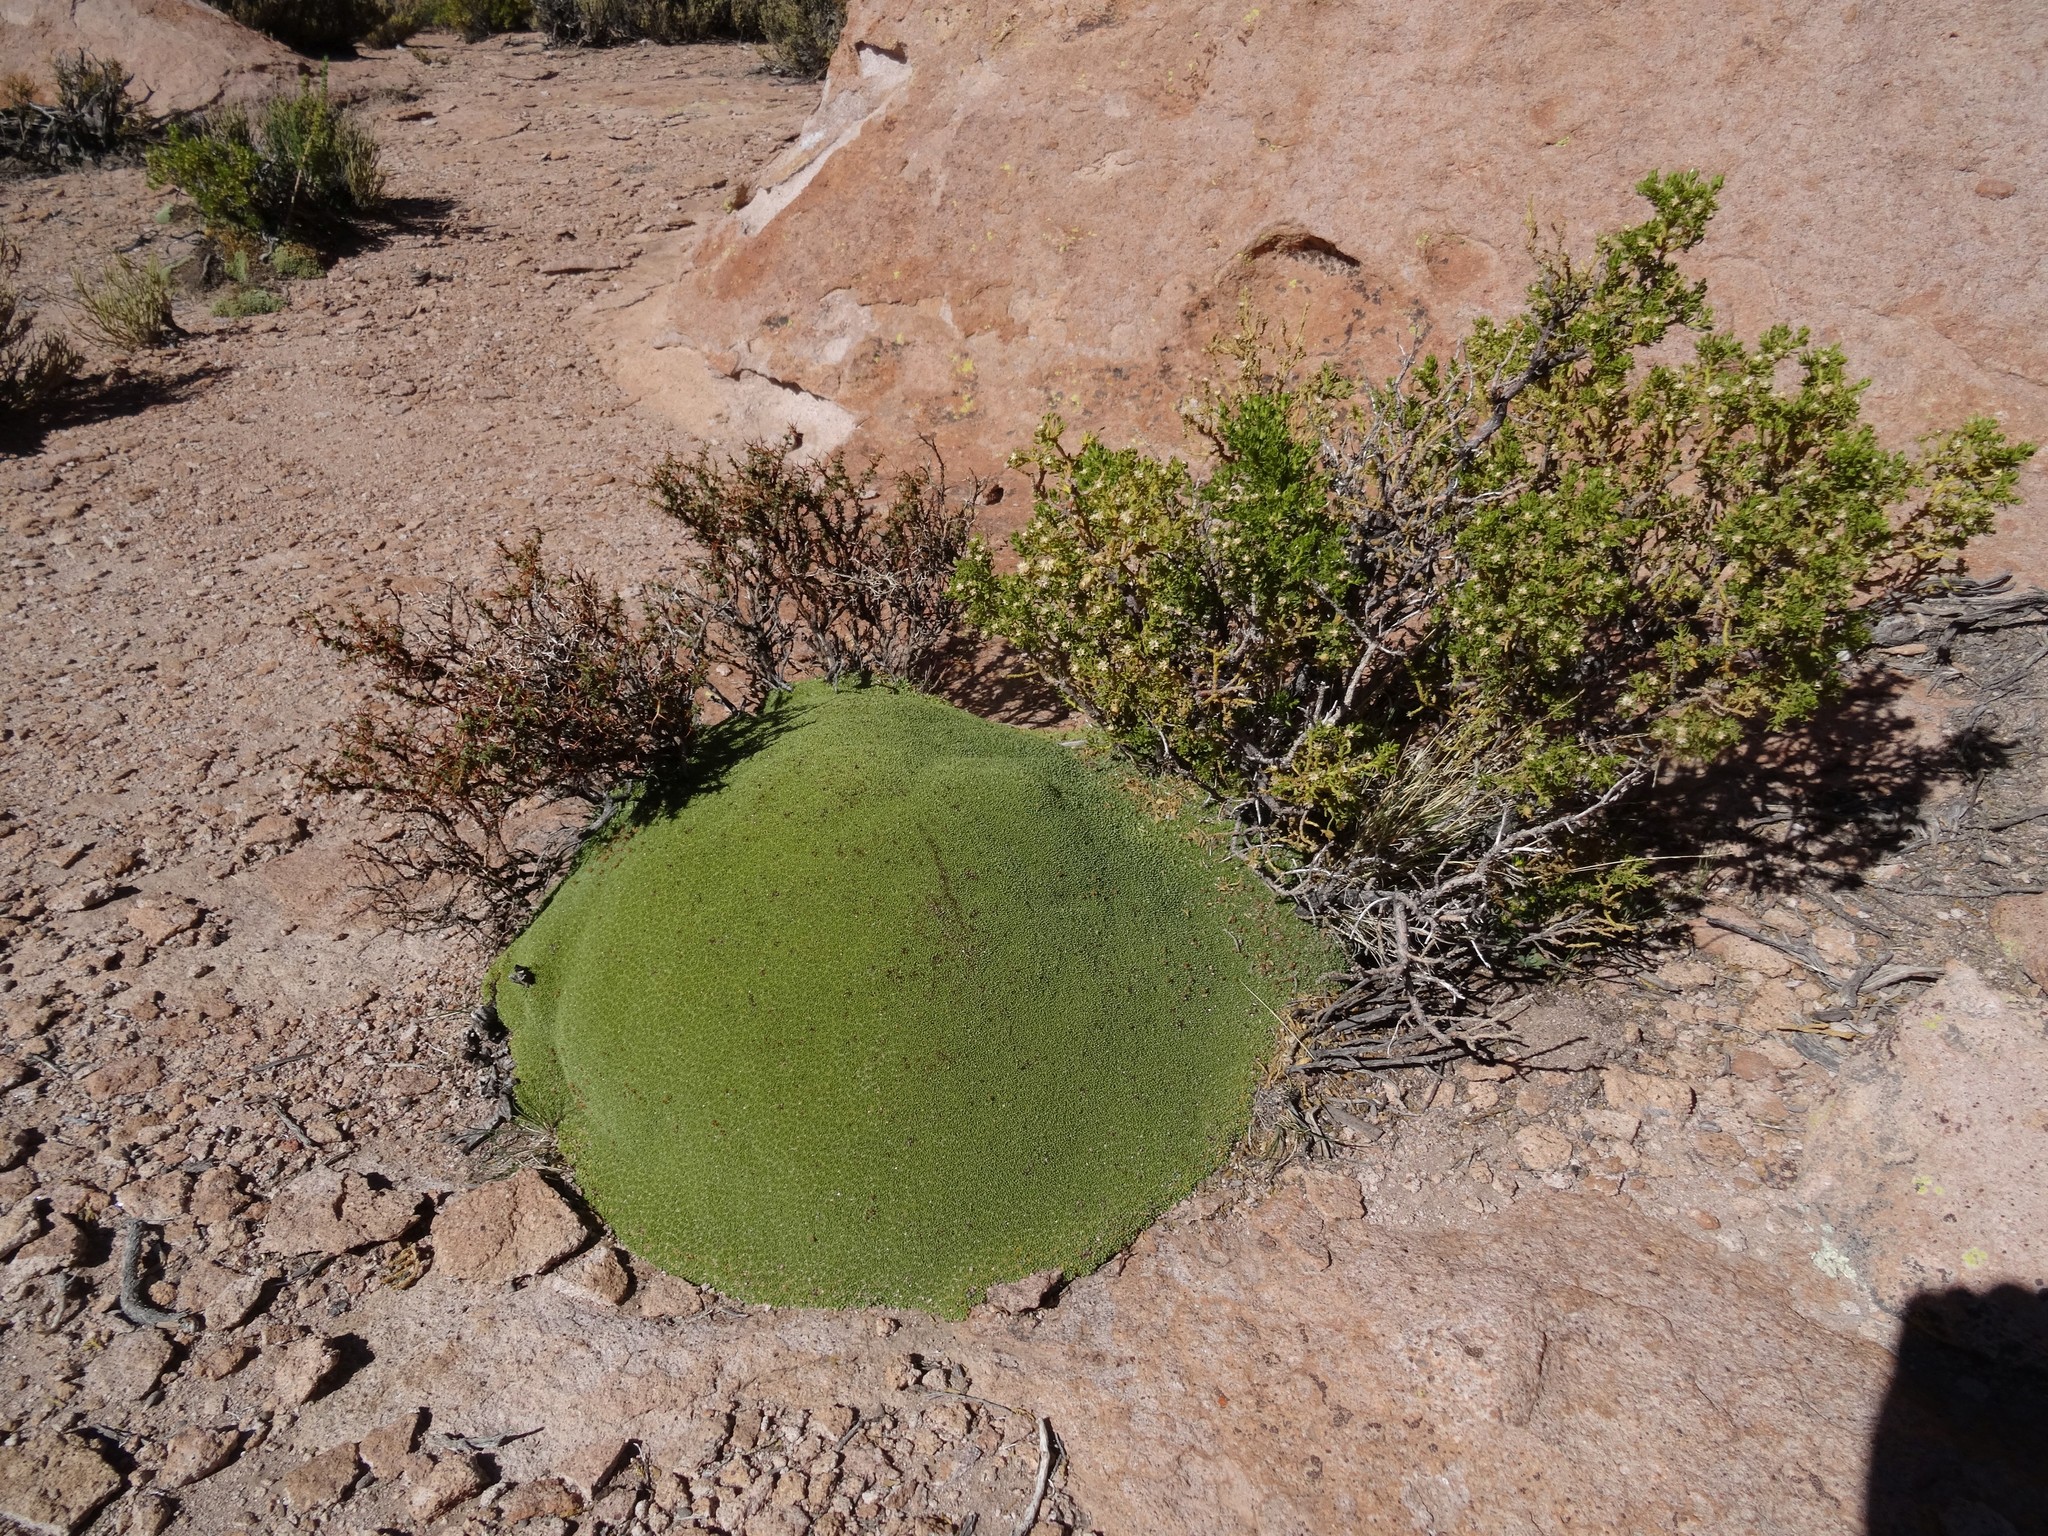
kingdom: Plantae
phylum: Tracheophyta
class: Magnoliopsida
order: Apiales
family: Apiaceae
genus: Azorella
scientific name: Azorella compacta
